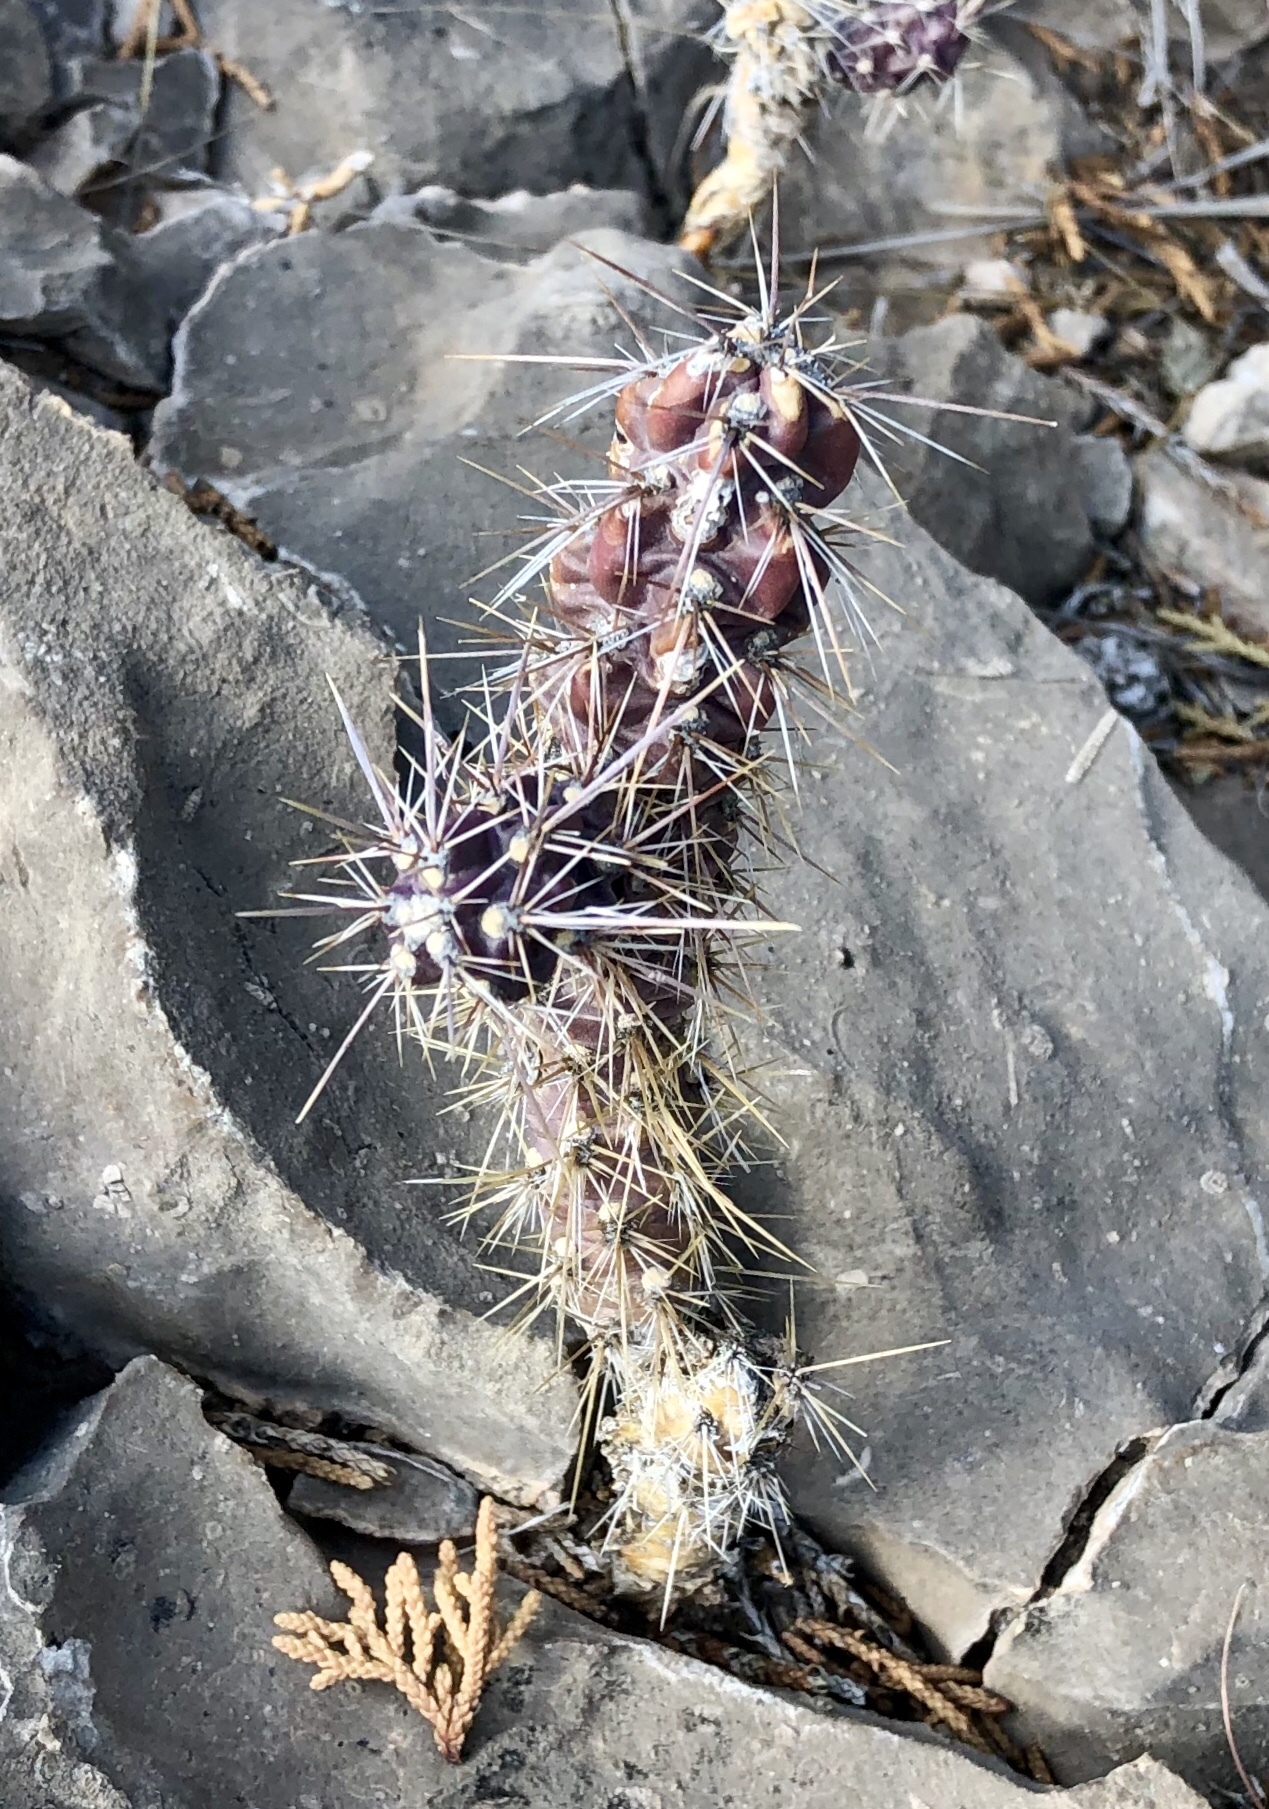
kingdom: Plantae
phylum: Tracheophyta
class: Magnoliopsida
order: Caryophyllales
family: Cactaceae
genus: Cylindropuntia
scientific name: Cylindropuntia imbricata
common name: Candelabrum cactus
